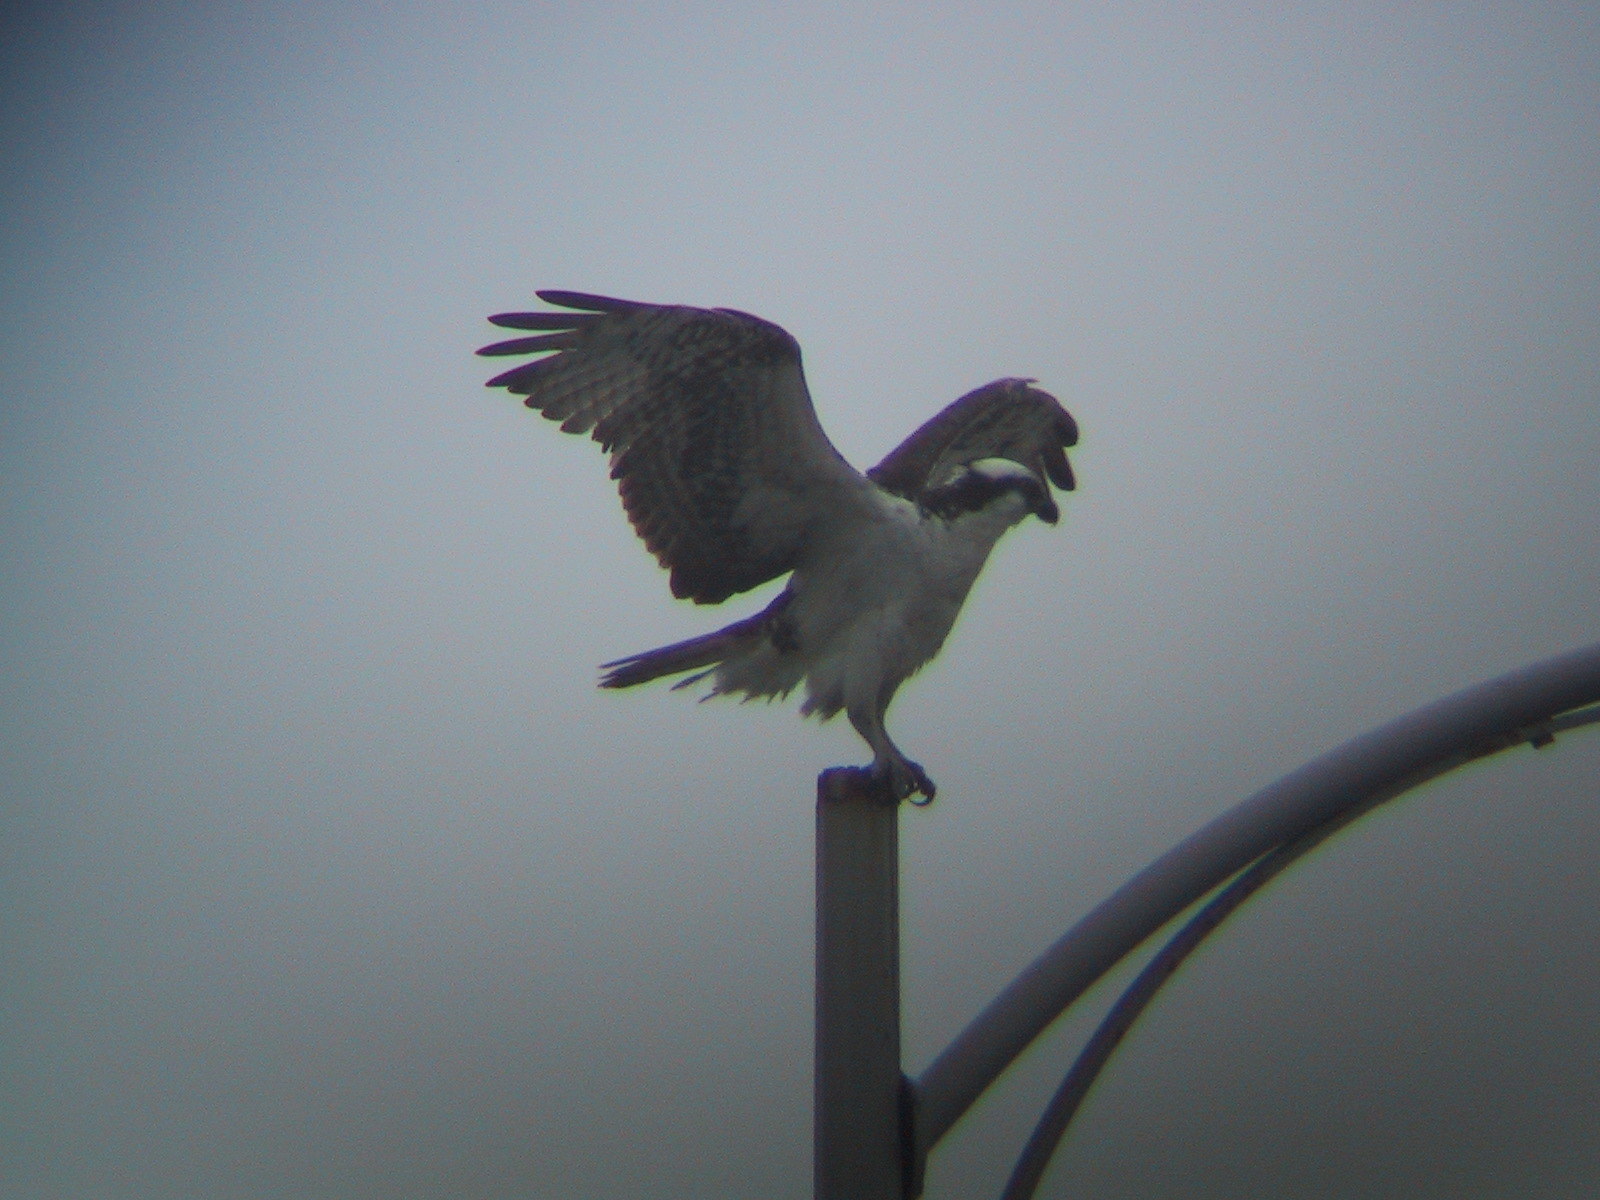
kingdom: Animalia
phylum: Chordata
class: Aves
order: Accipitriformes
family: Pandionidae
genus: Pandion
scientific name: Pandion haliaetus
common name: Osprey
